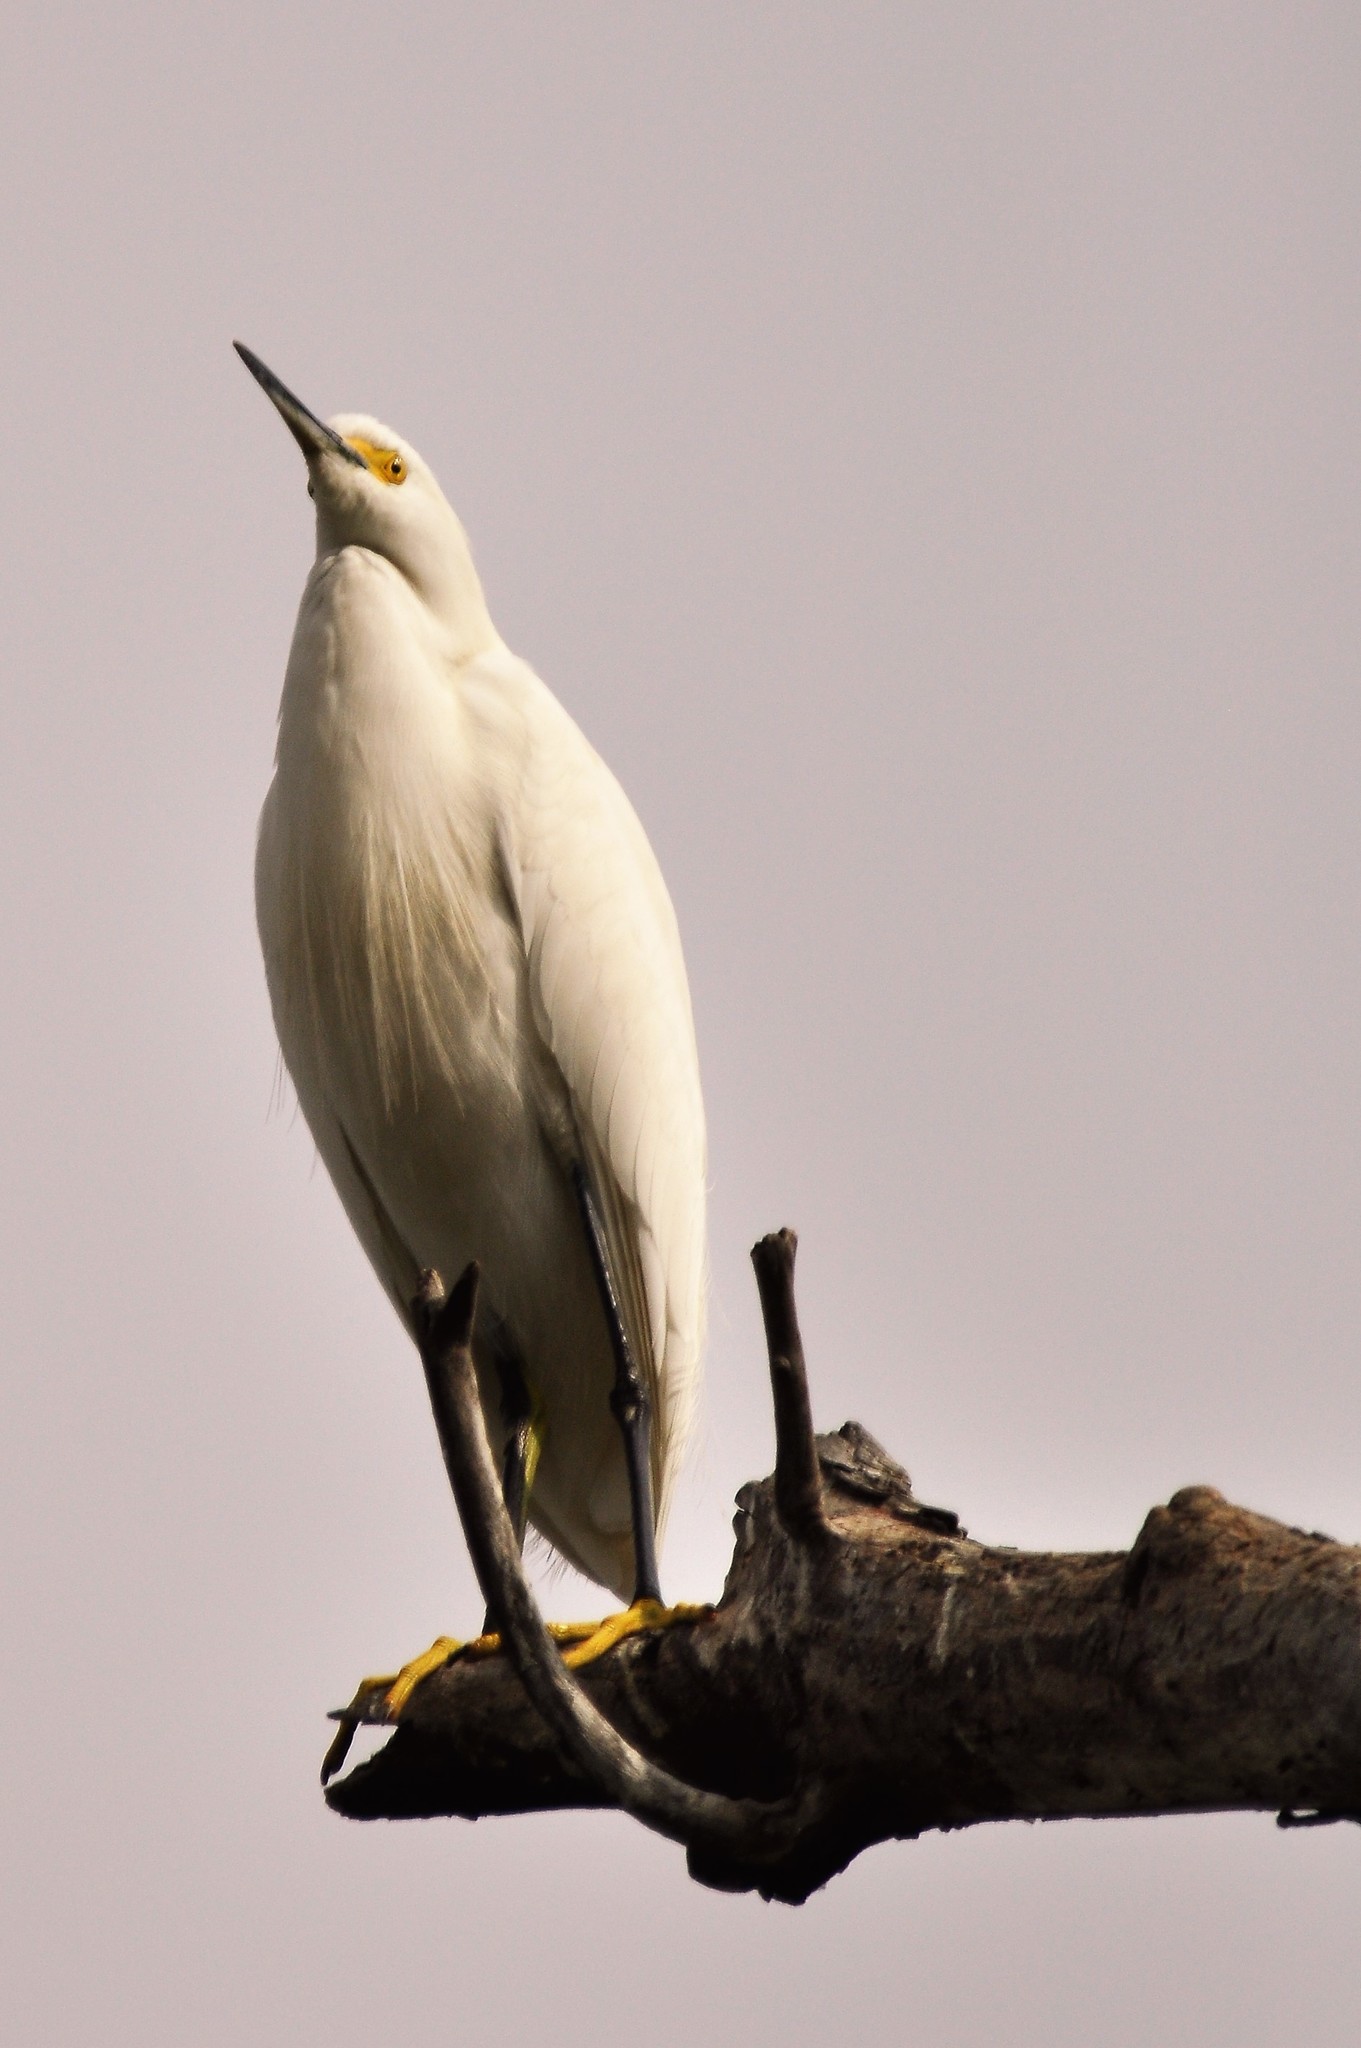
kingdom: Animalia
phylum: Chordata
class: Aves
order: Pelecaniformes
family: Ardeidae
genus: Egretta
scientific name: Egretta thula
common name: Snowy egret
